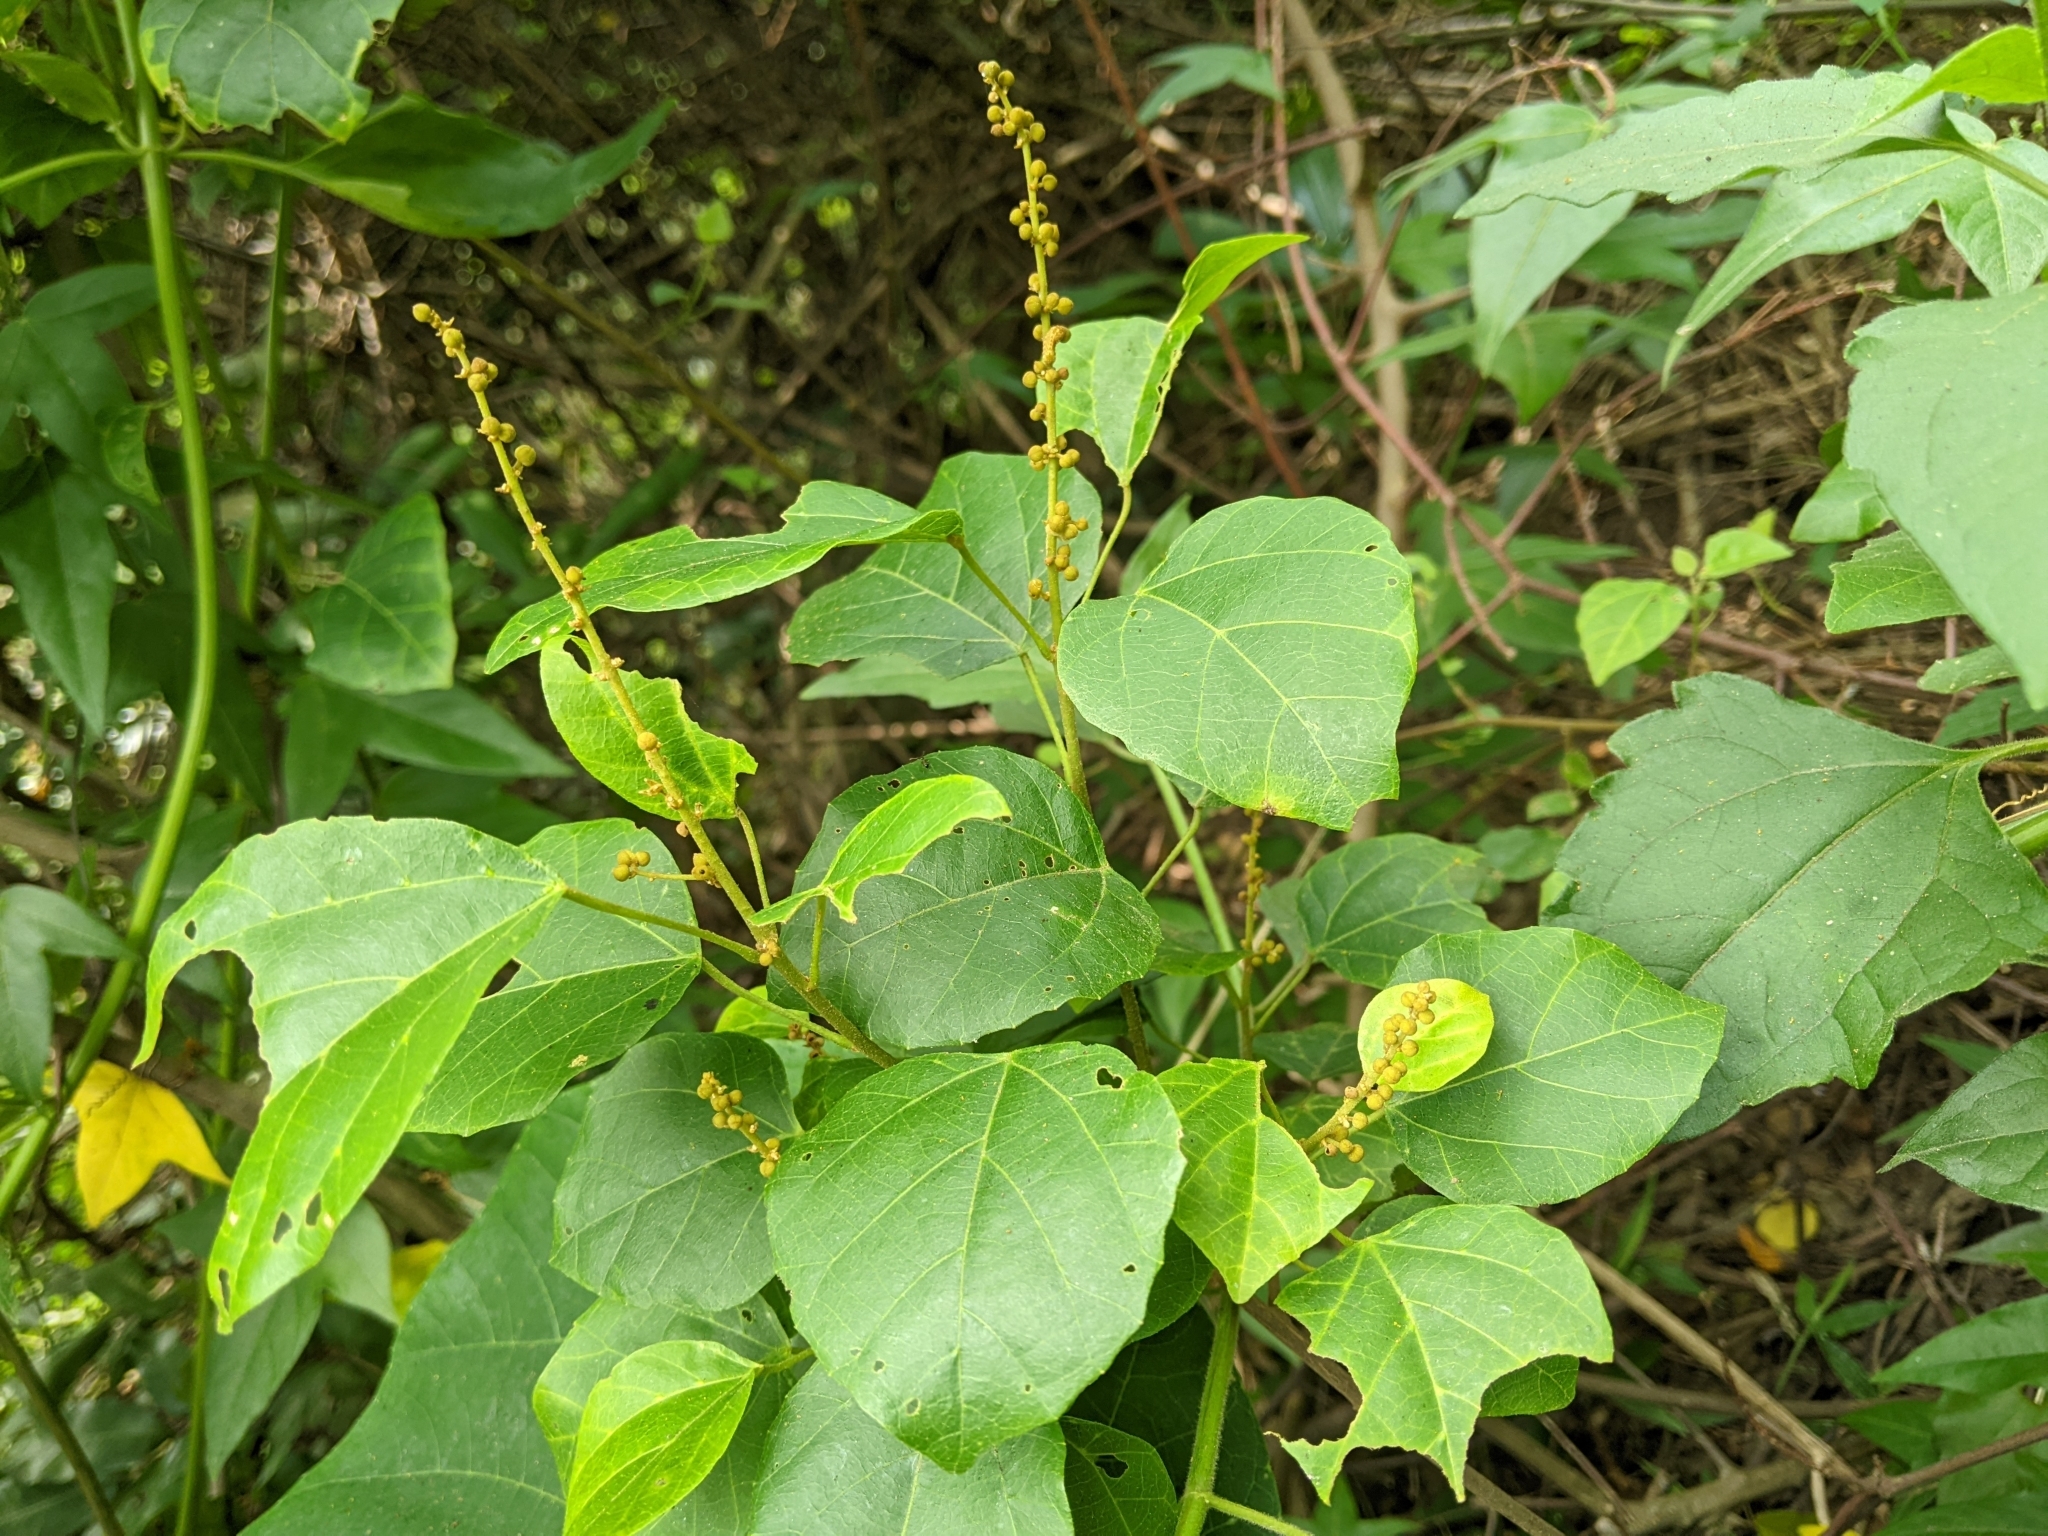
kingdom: Plantae
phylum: Tracheophyta
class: Magnoliopsida
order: Malpighiales
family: Euphorbiaceae
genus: Mallotus
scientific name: Mallotus repandus
